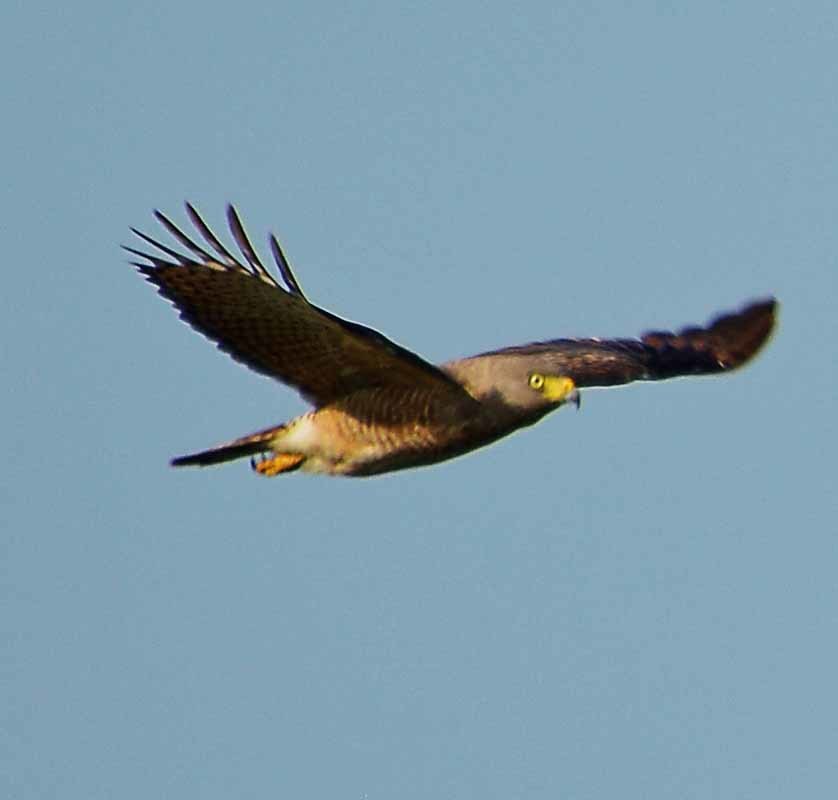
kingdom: Animalia
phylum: Chordata
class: Aves
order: Accipitriformes
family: Accipitridae
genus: Rupornis
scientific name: Rupornis magnirostris
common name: Roadside hawk
